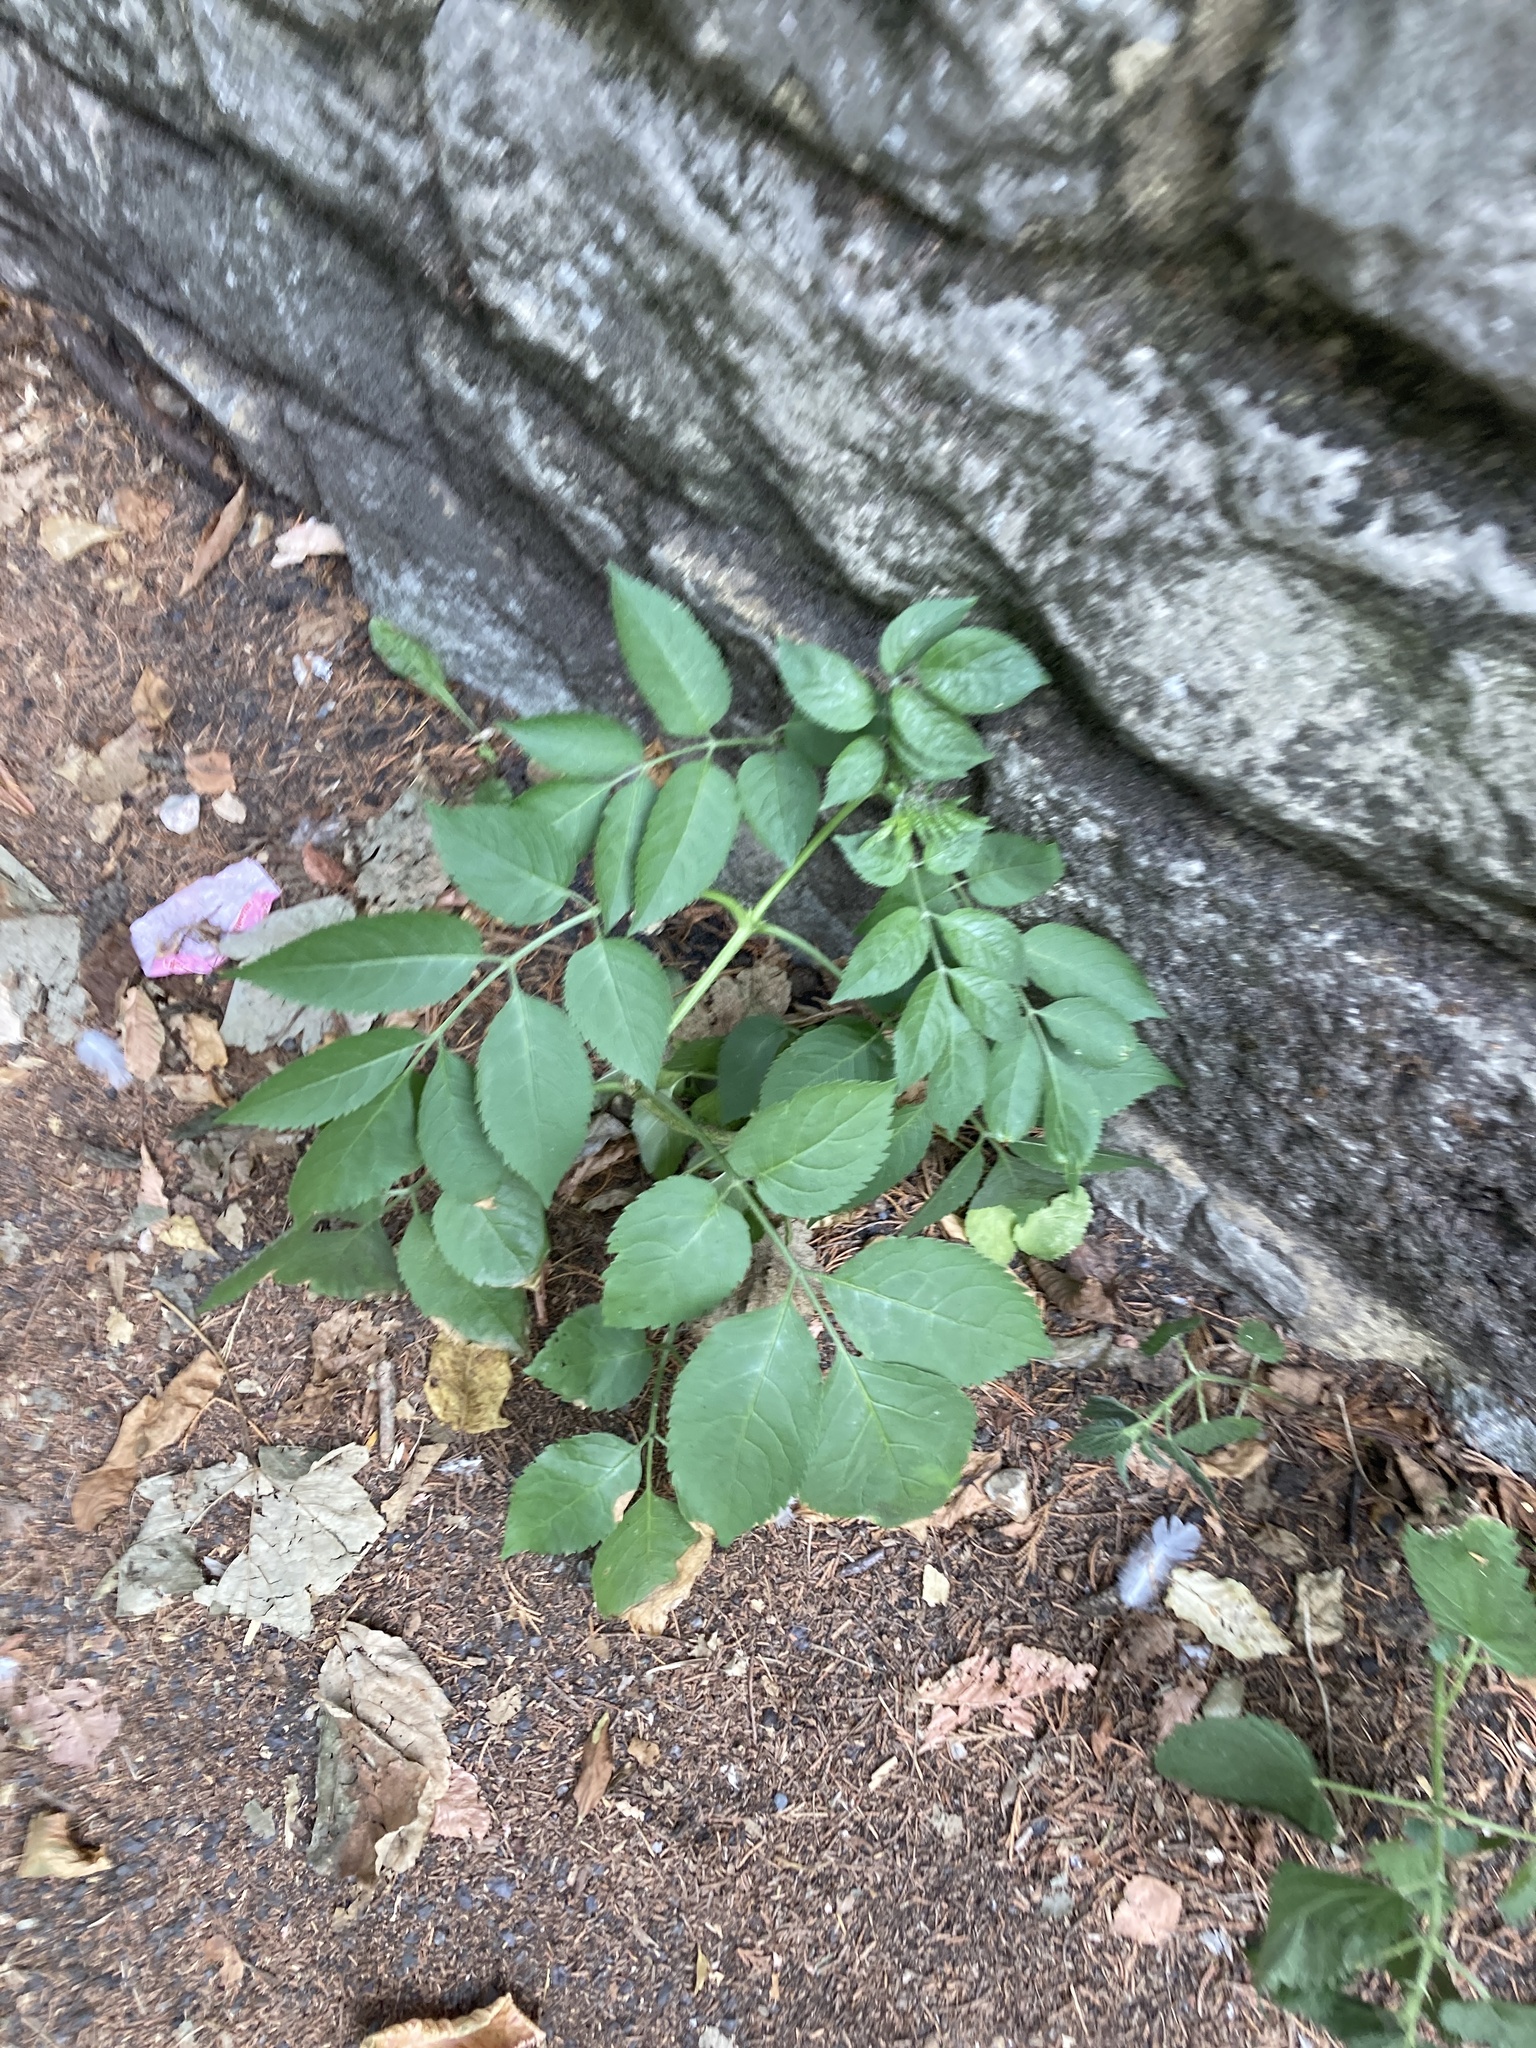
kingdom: Plantae
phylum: Tracheophyta
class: Magnoliopsida
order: Dipsacales
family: Viburnaceae
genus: Sambucus
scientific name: Sambucus nigra
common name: Elder
